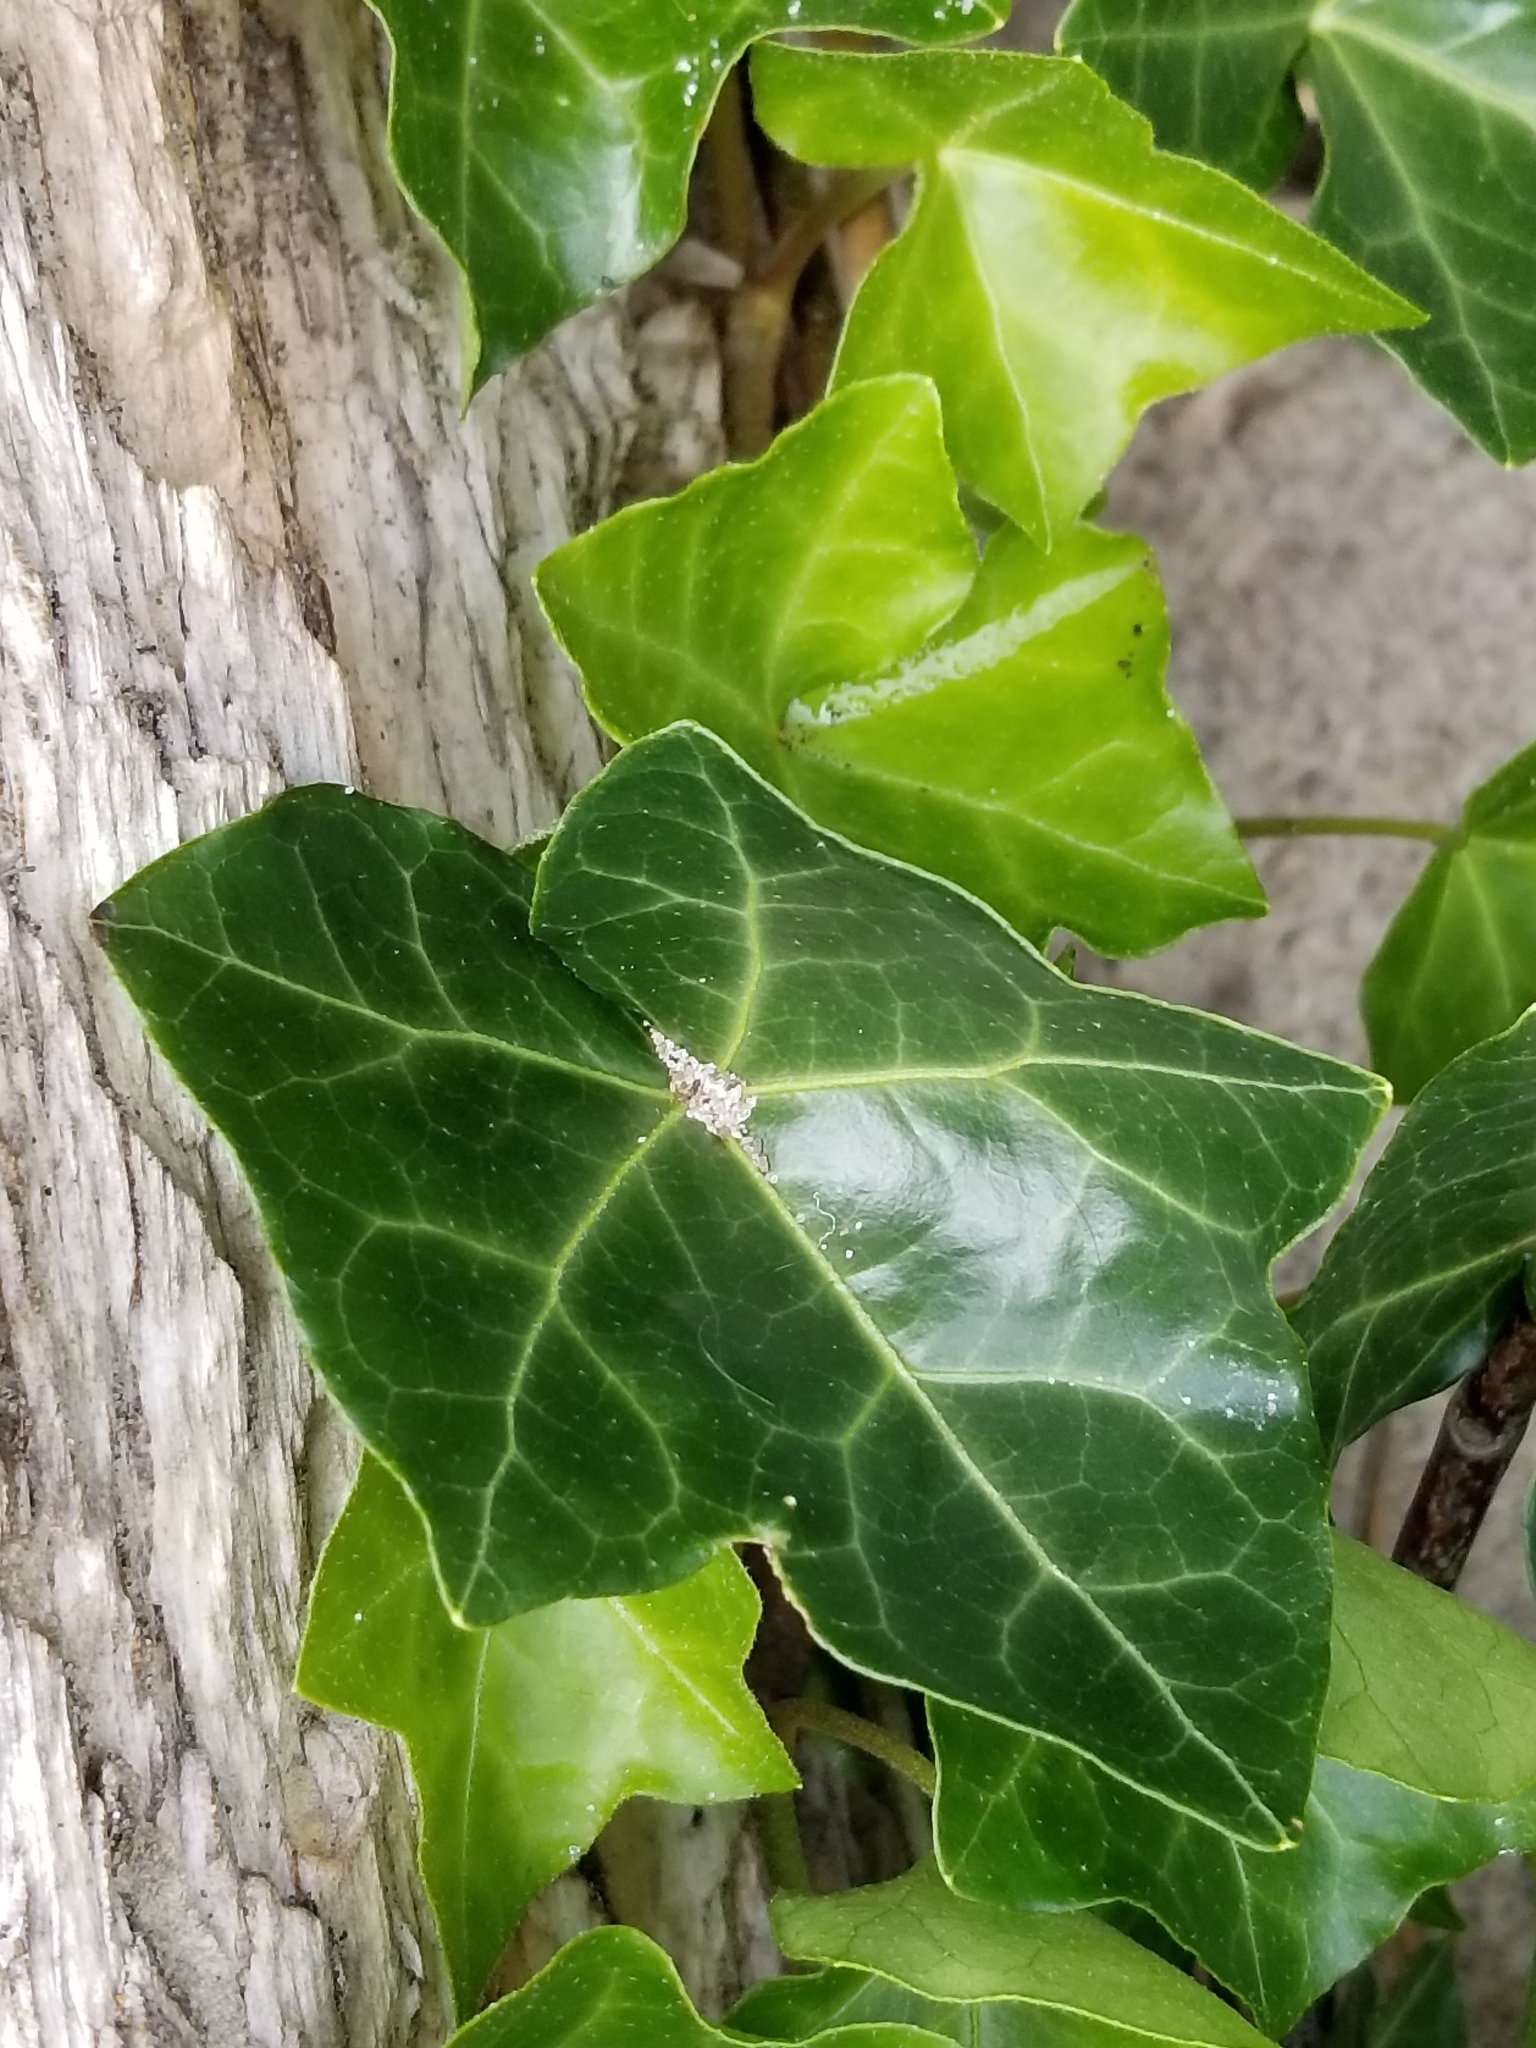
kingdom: Plantae
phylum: Tracheophyta
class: Magnoliopsida
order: Apiales
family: Araliaceae
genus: Hedera
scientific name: Hedera helix
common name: Ivy
